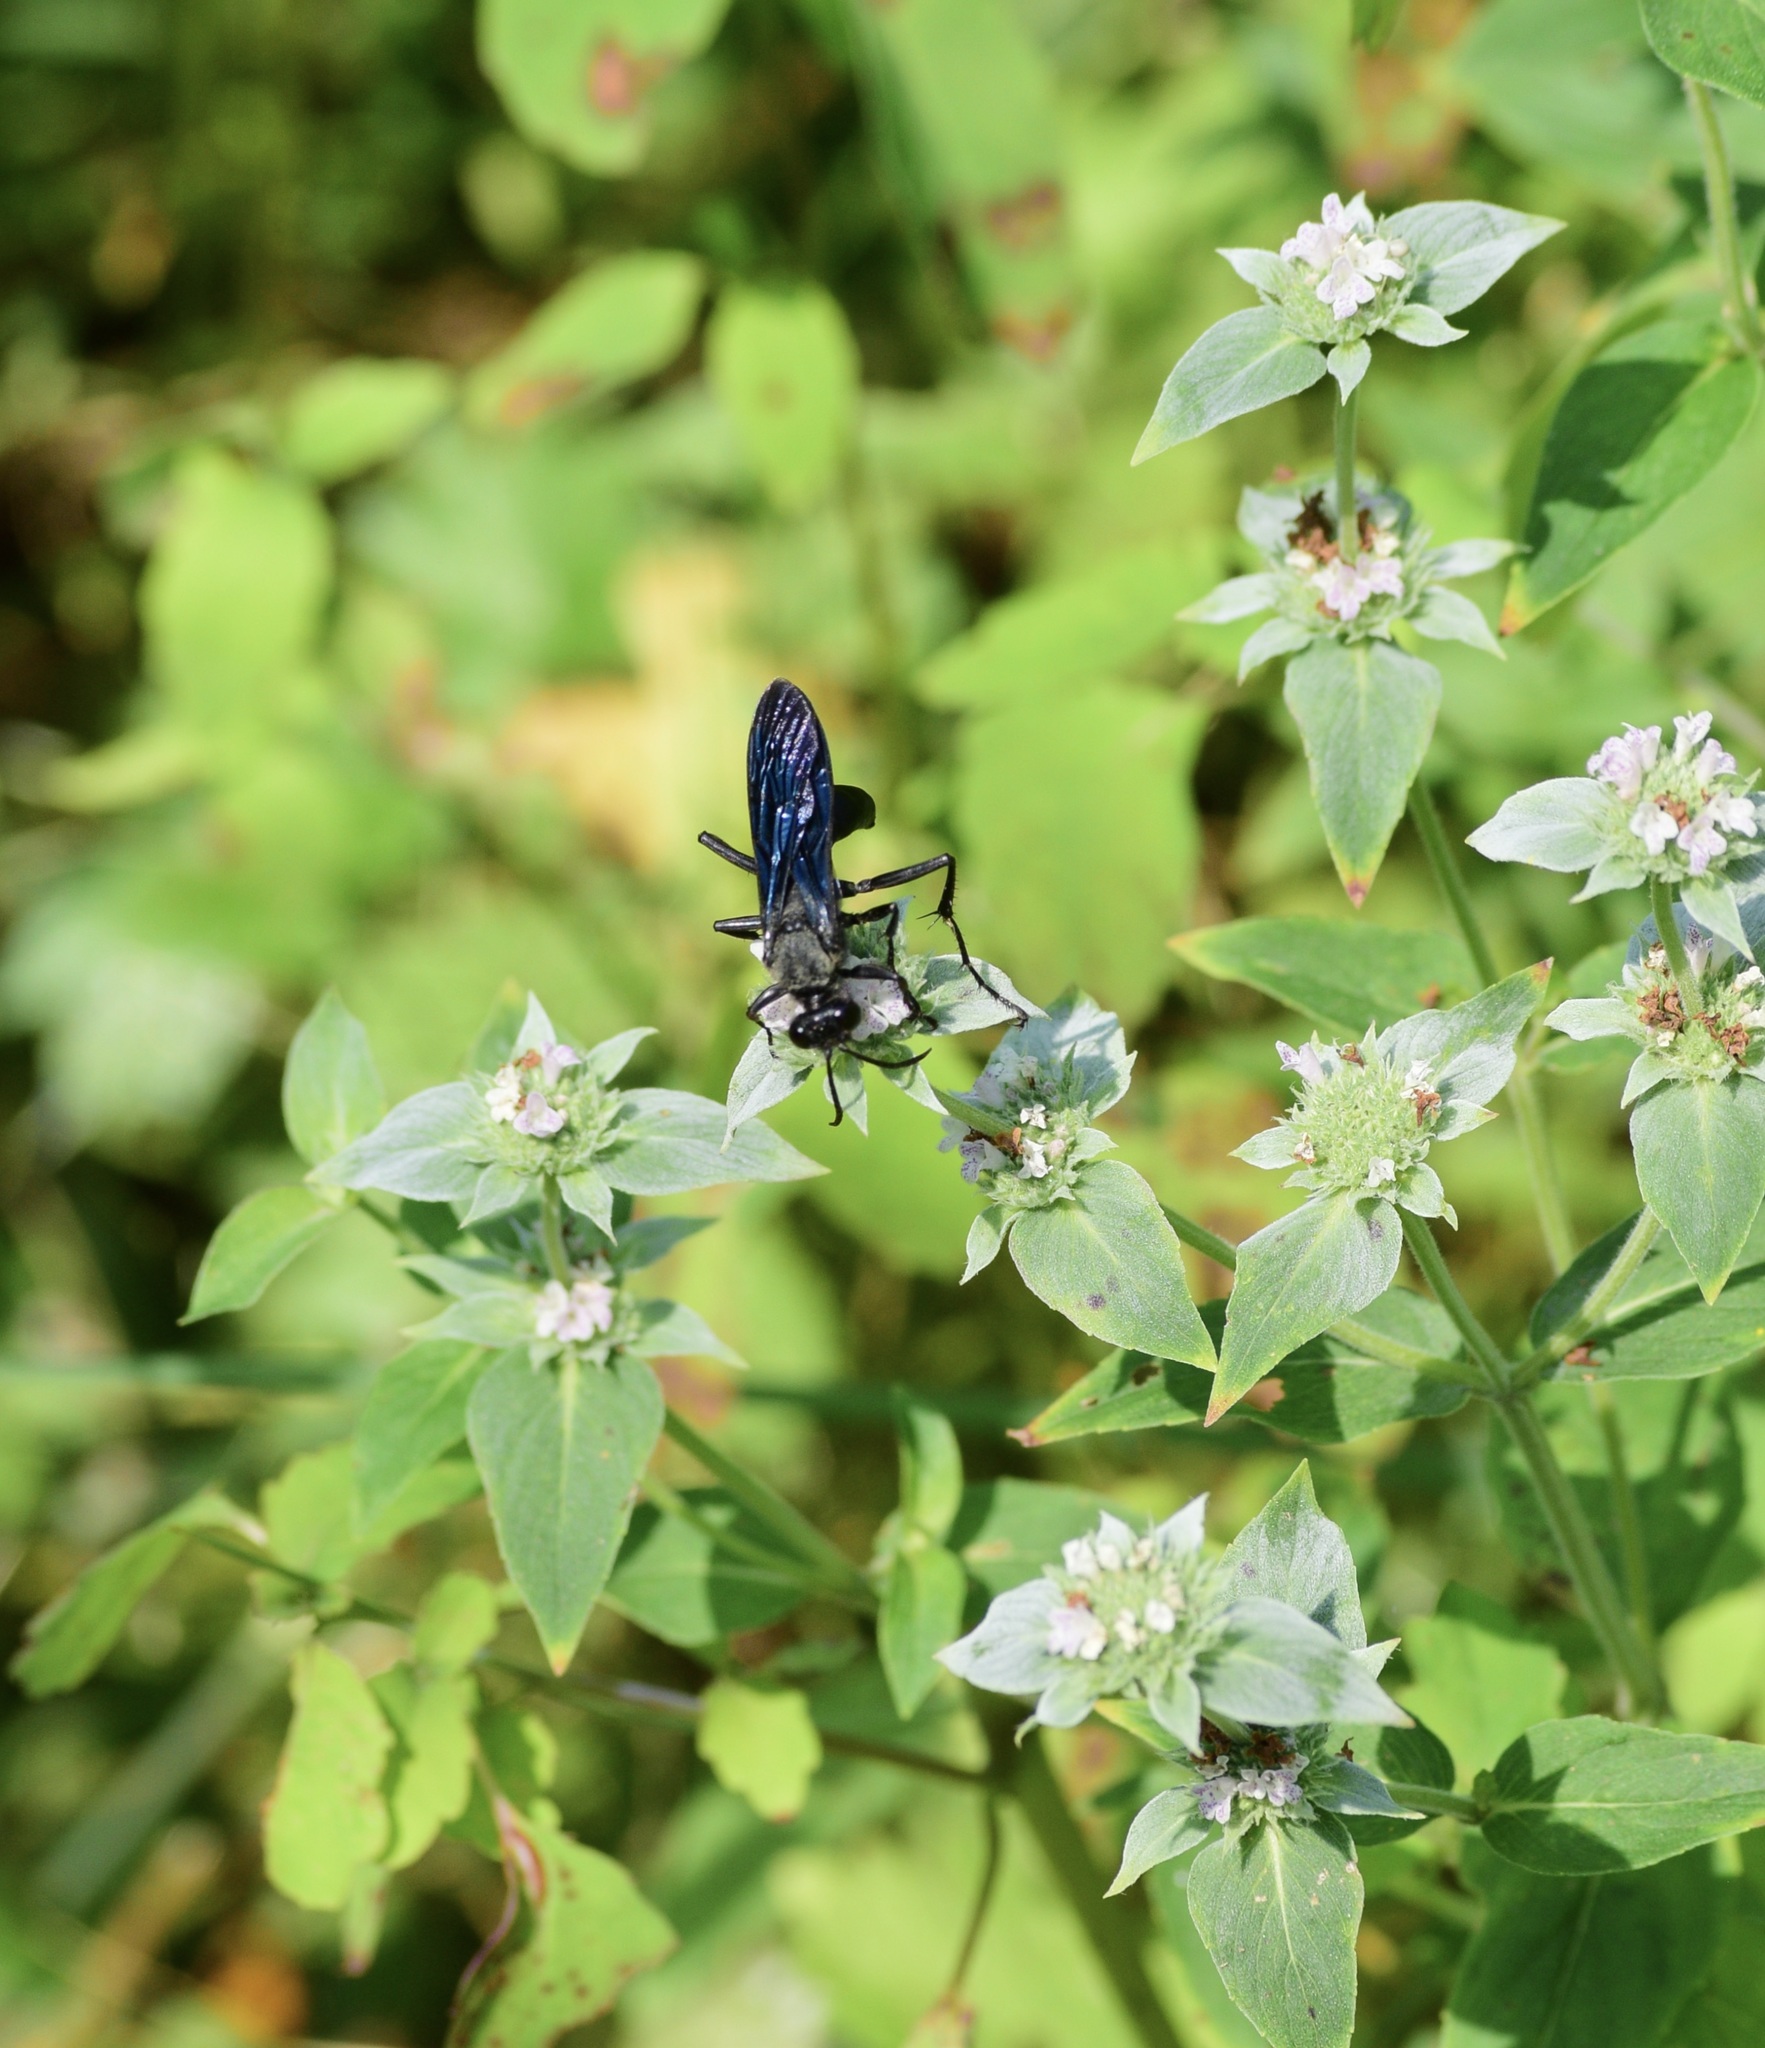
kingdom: Animalia
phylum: Arthropoda
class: Insecta
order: Hymenoptera
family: Sphecidae
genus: Sphex
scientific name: Sphex pensylvanicus
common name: Great black digger wasp
